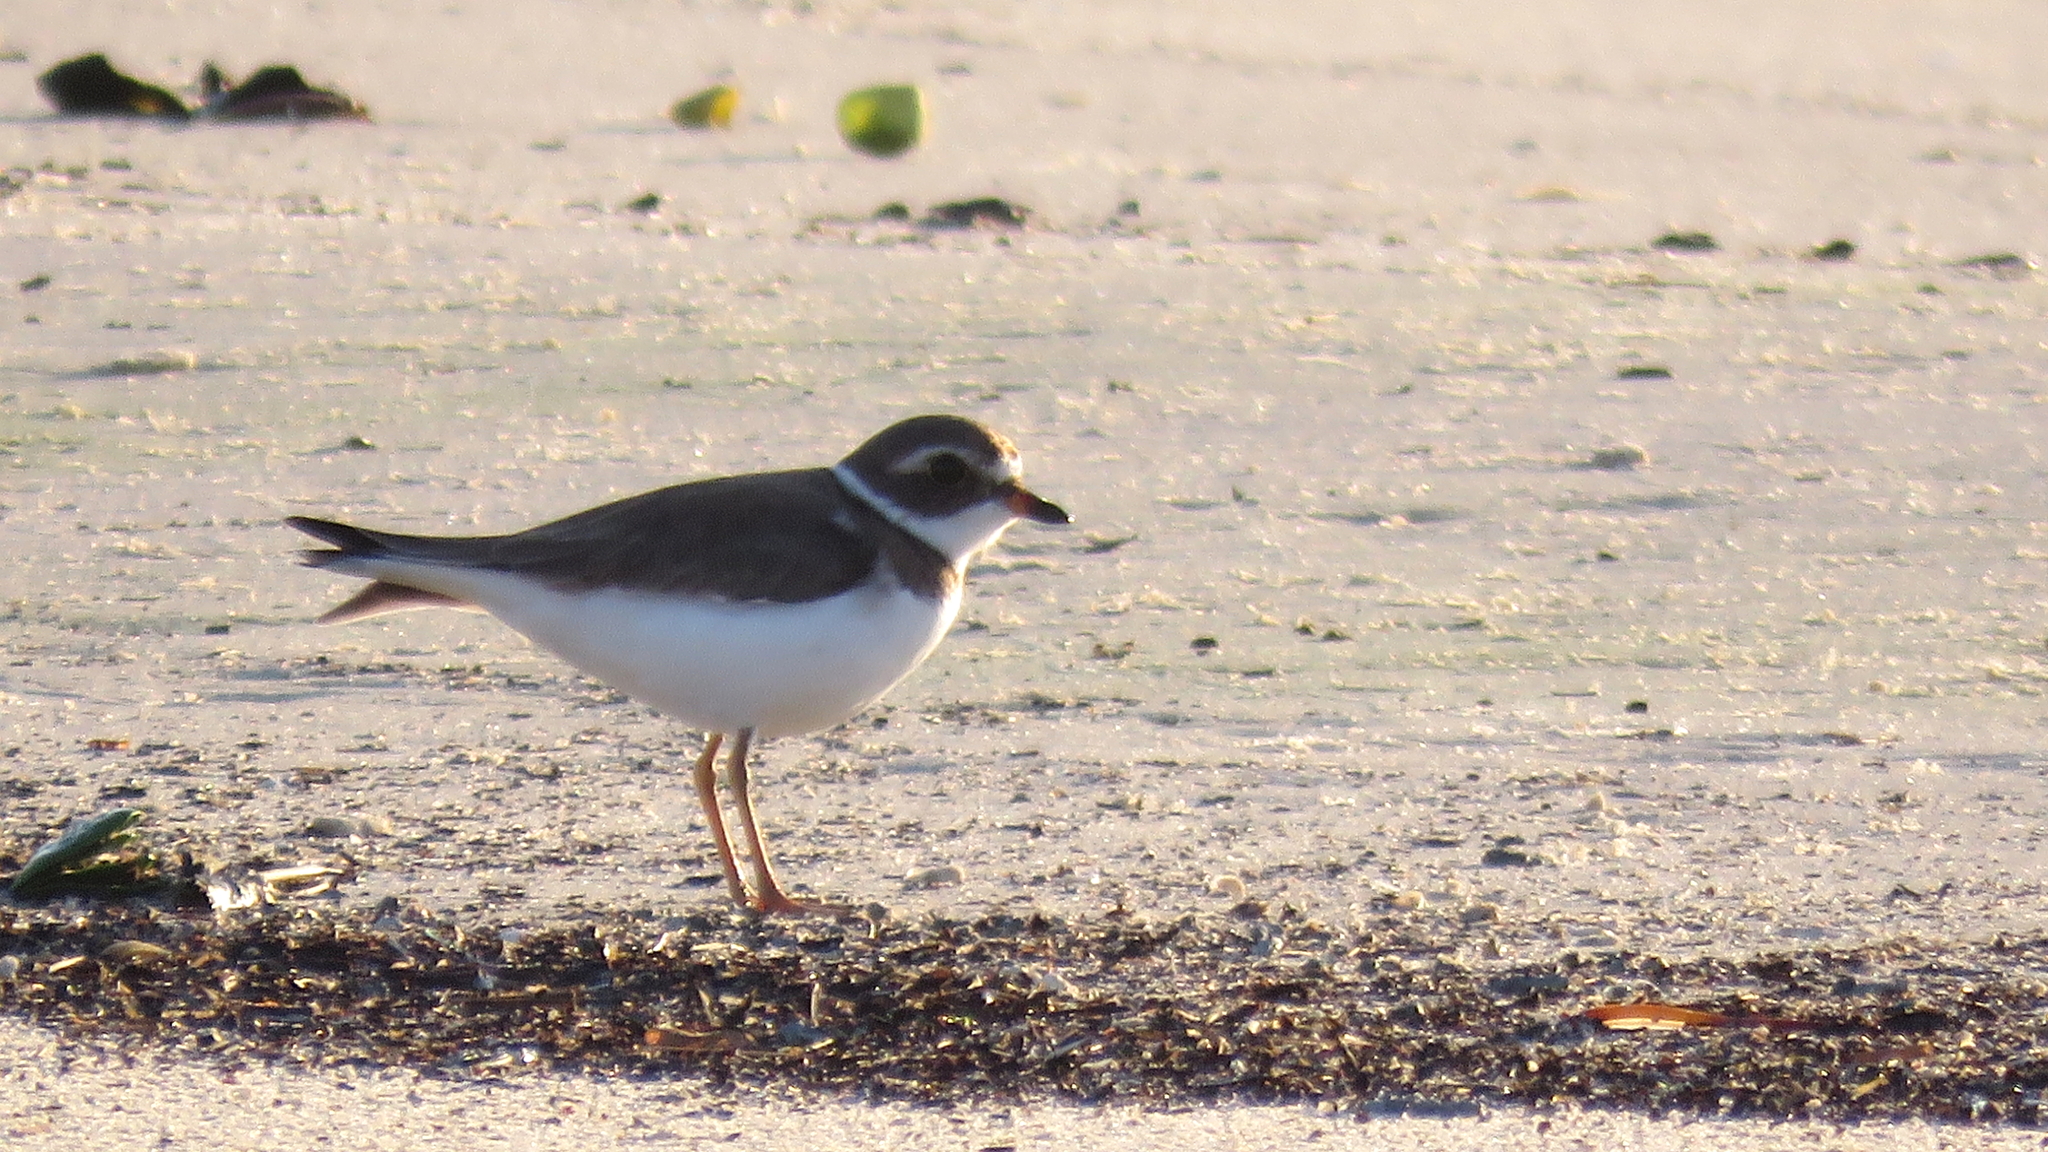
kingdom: Animalia
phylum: Chordata
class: Aves
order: Charadriiformes
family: Charadriidae
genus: Charadrius
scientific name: Charadrius semipalmatus
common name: Semipalmated plover
